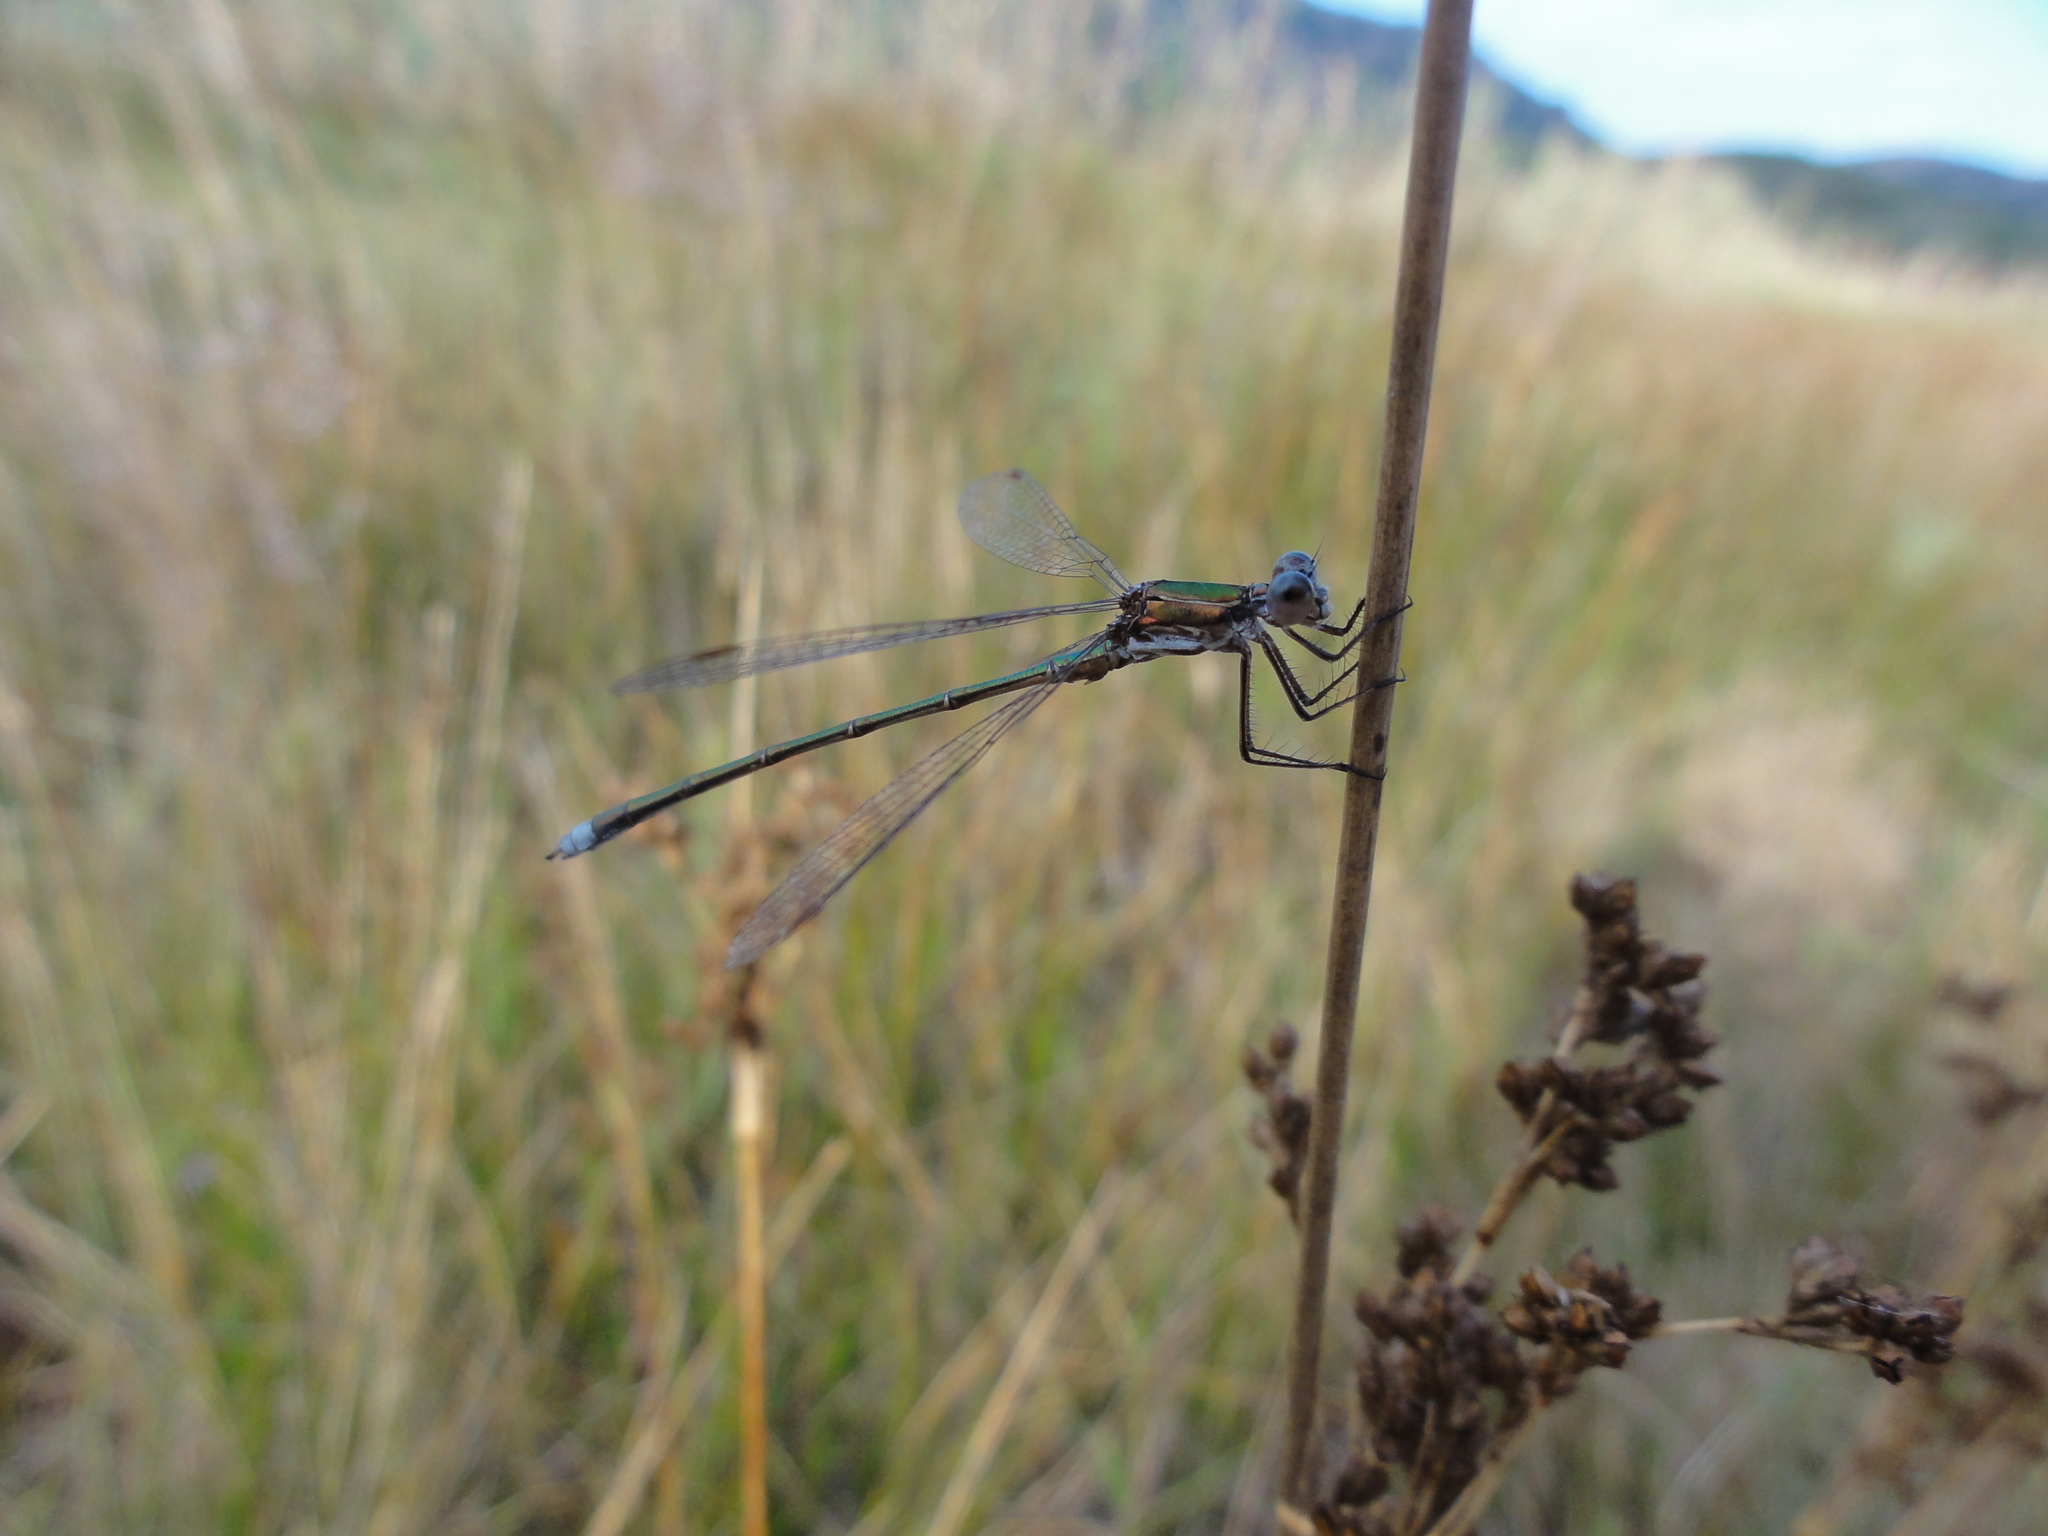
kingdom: Animalia
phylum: Arthropoda
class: Insecta
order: Odonata
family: Lestidae
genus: Lestes
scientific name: Lestes virens
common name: Small emerald spreadwing
